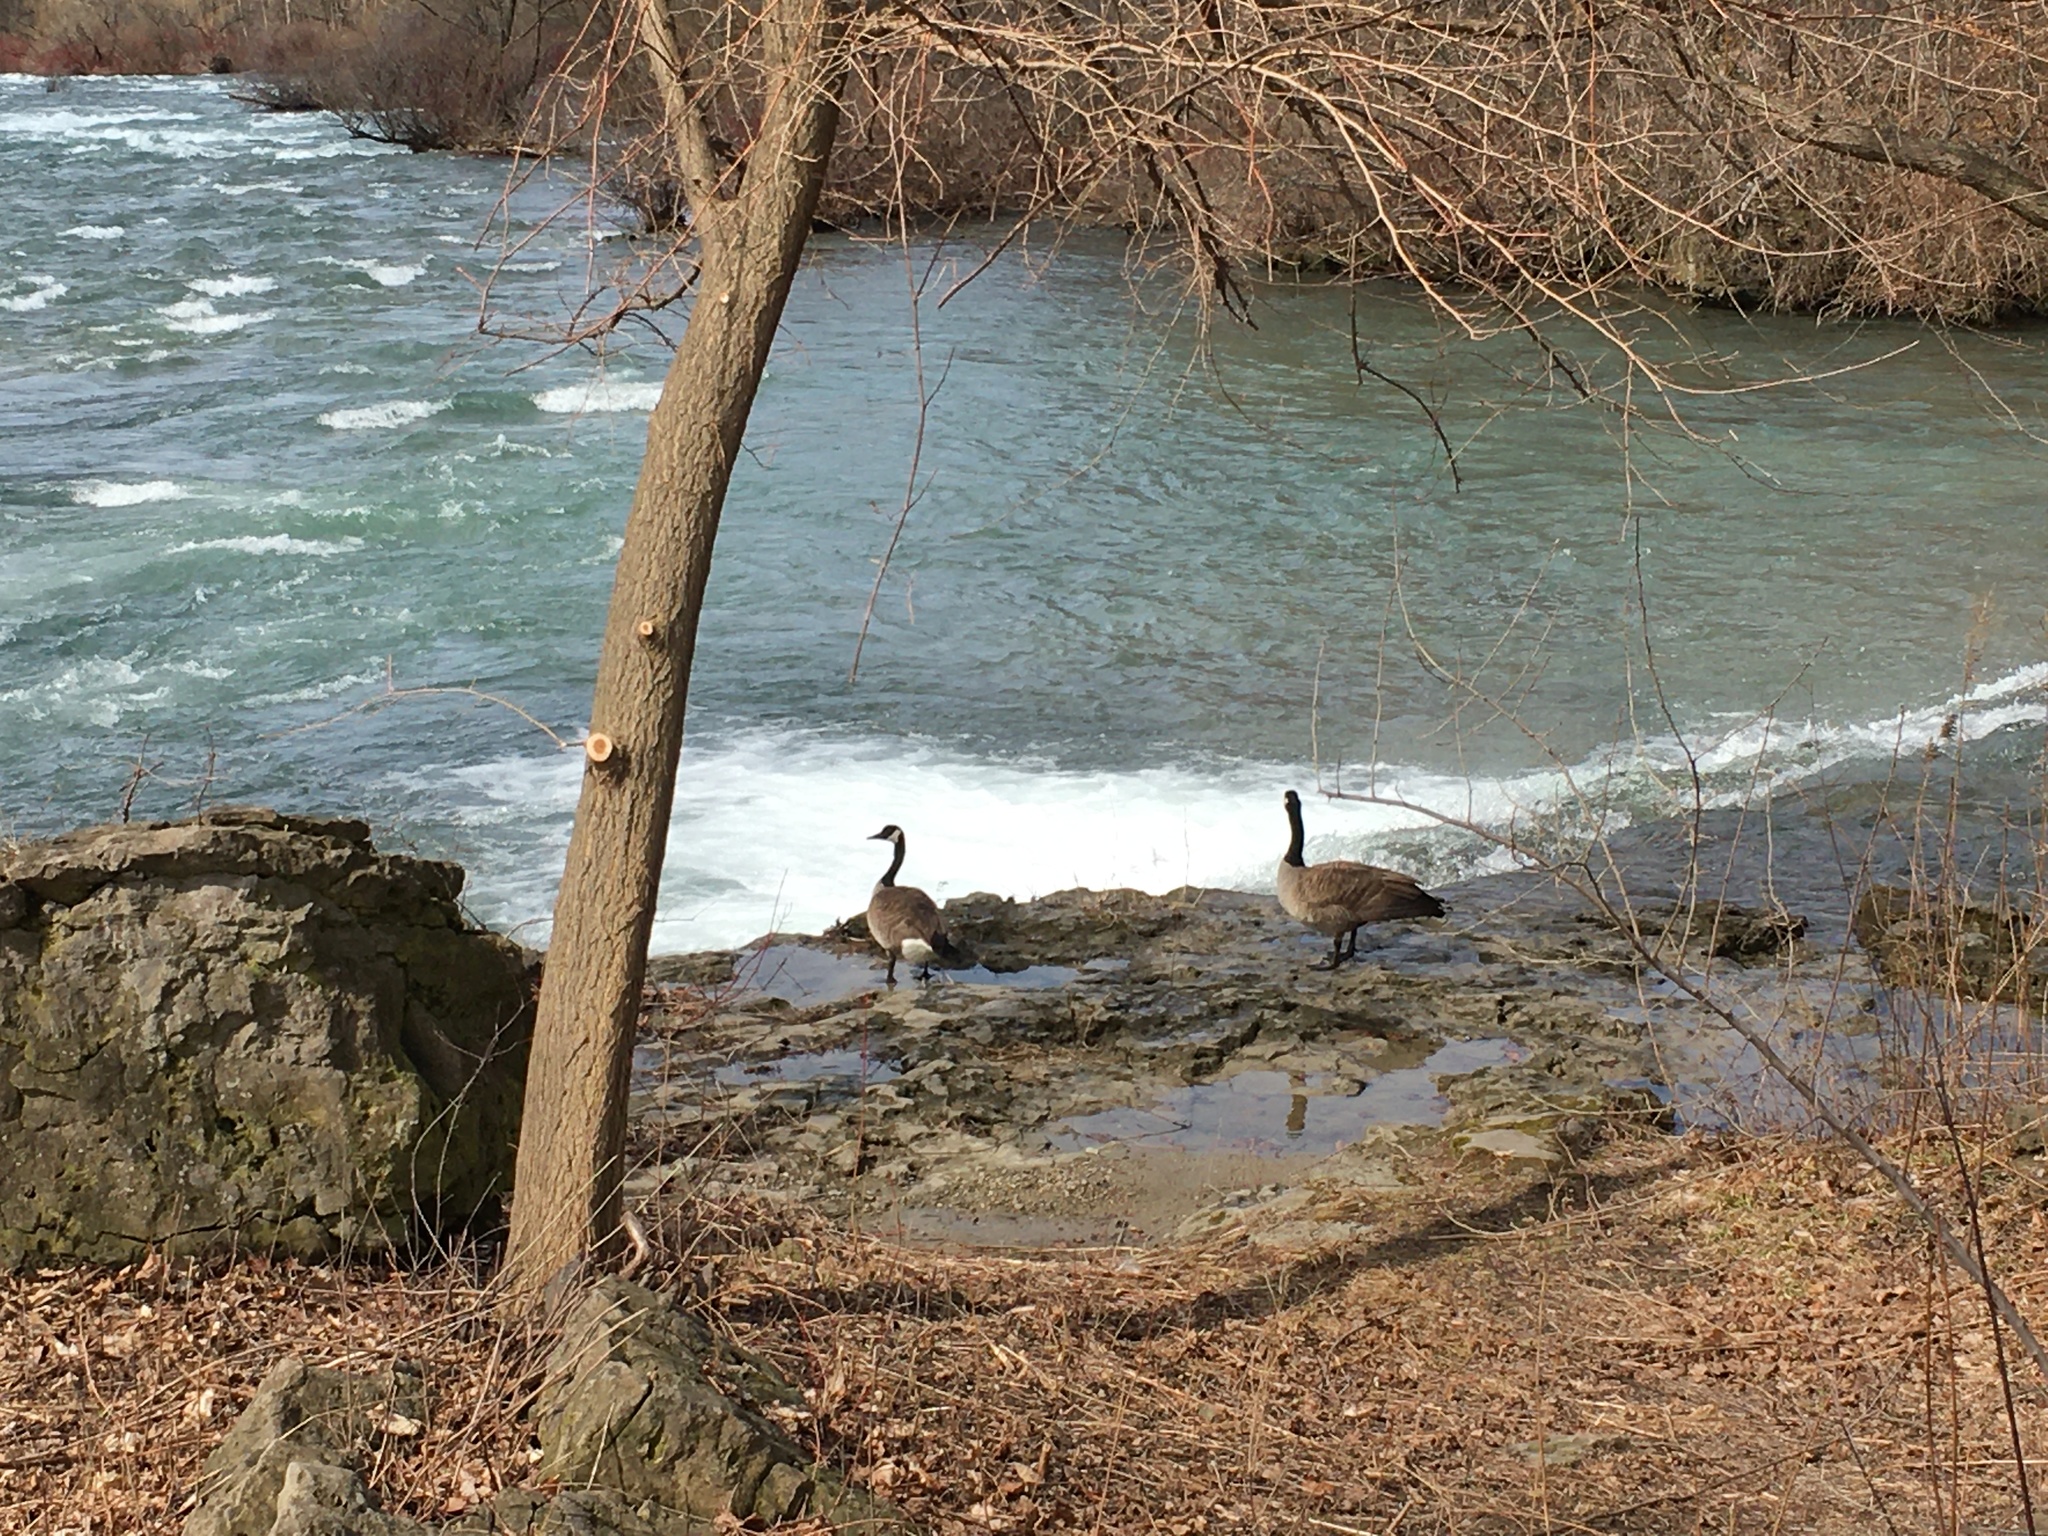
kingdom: Animalia
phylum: Chordata
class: Aves
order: Anseriformes
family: Anatidae
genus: Branta
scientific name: Branta canadensis
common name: Canada goose
